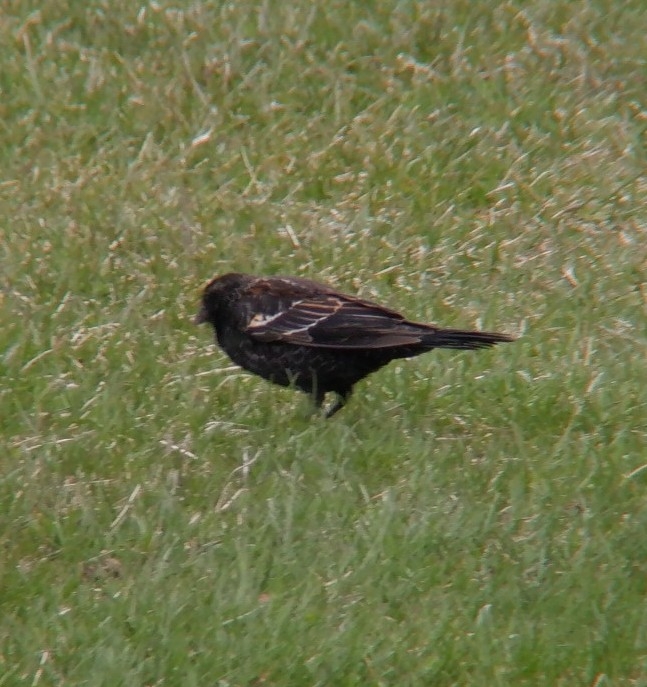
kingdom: Animalia
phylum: Chordata
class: Aves
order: Passeriformes
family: Icteridae
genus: Agelaius
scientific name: Agelaius phoeniceus
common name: Red-winged blackbird
